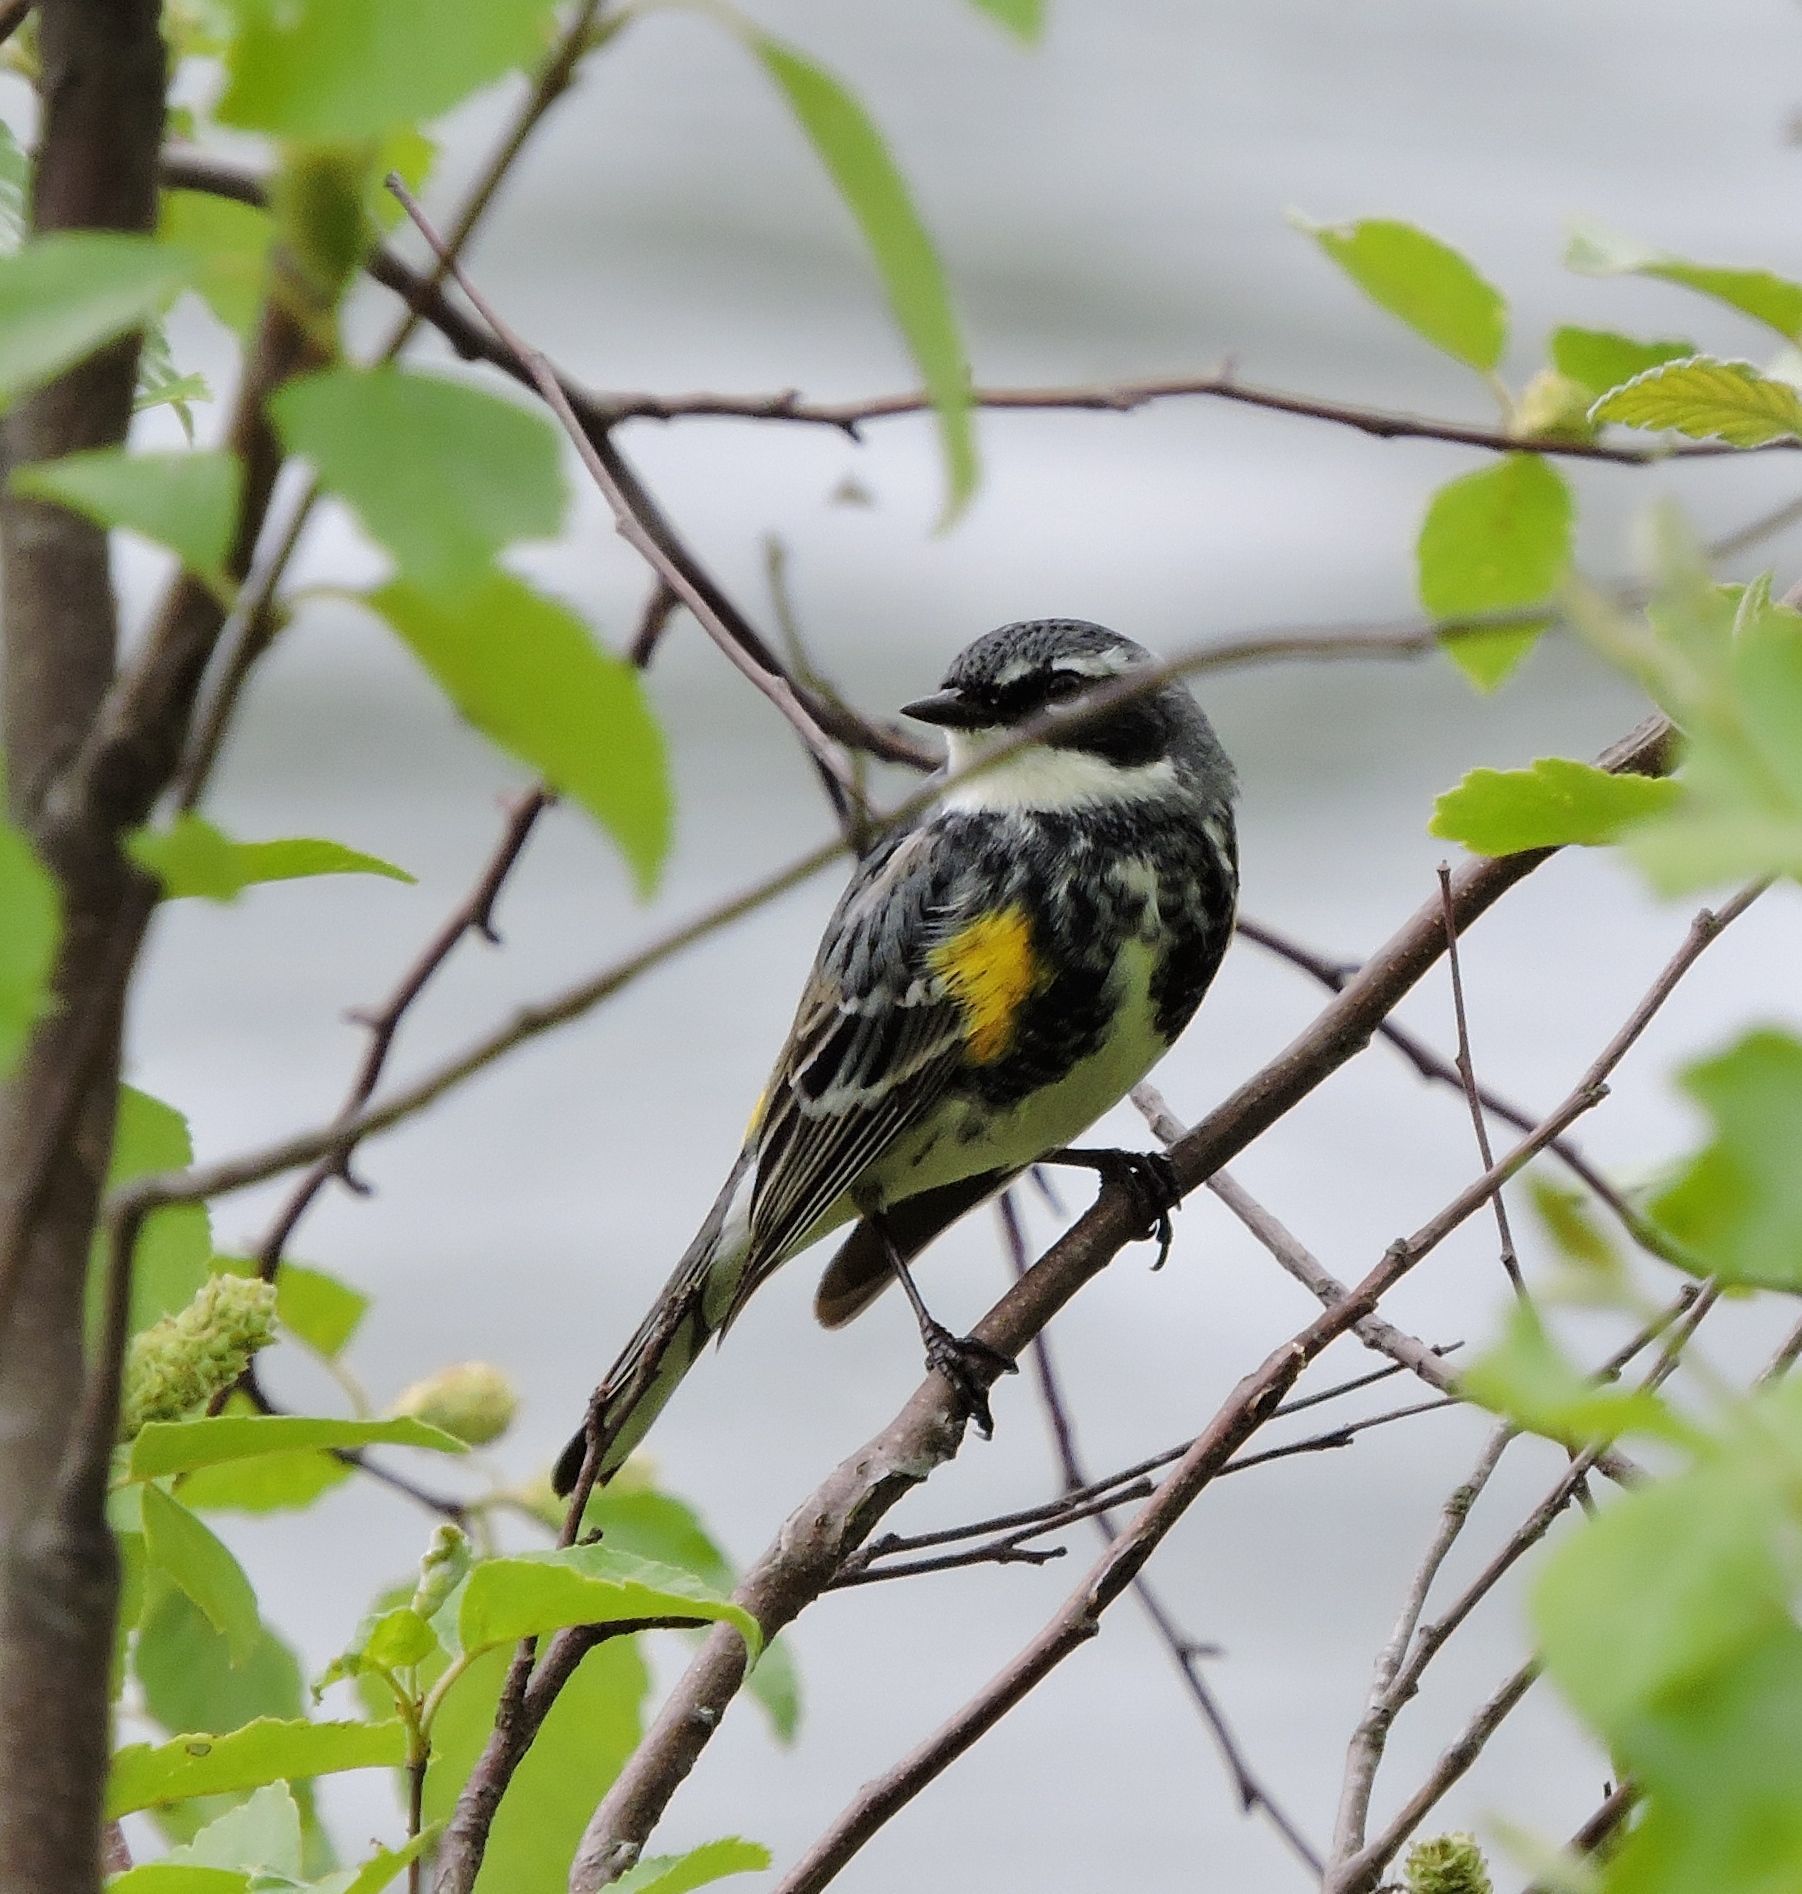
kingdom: Animalia
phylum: Chordata
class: Aves
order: Passeriformes
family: Parulidae
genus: Setophaga
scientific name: Setophaga coronata
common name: Myrtle warbler
